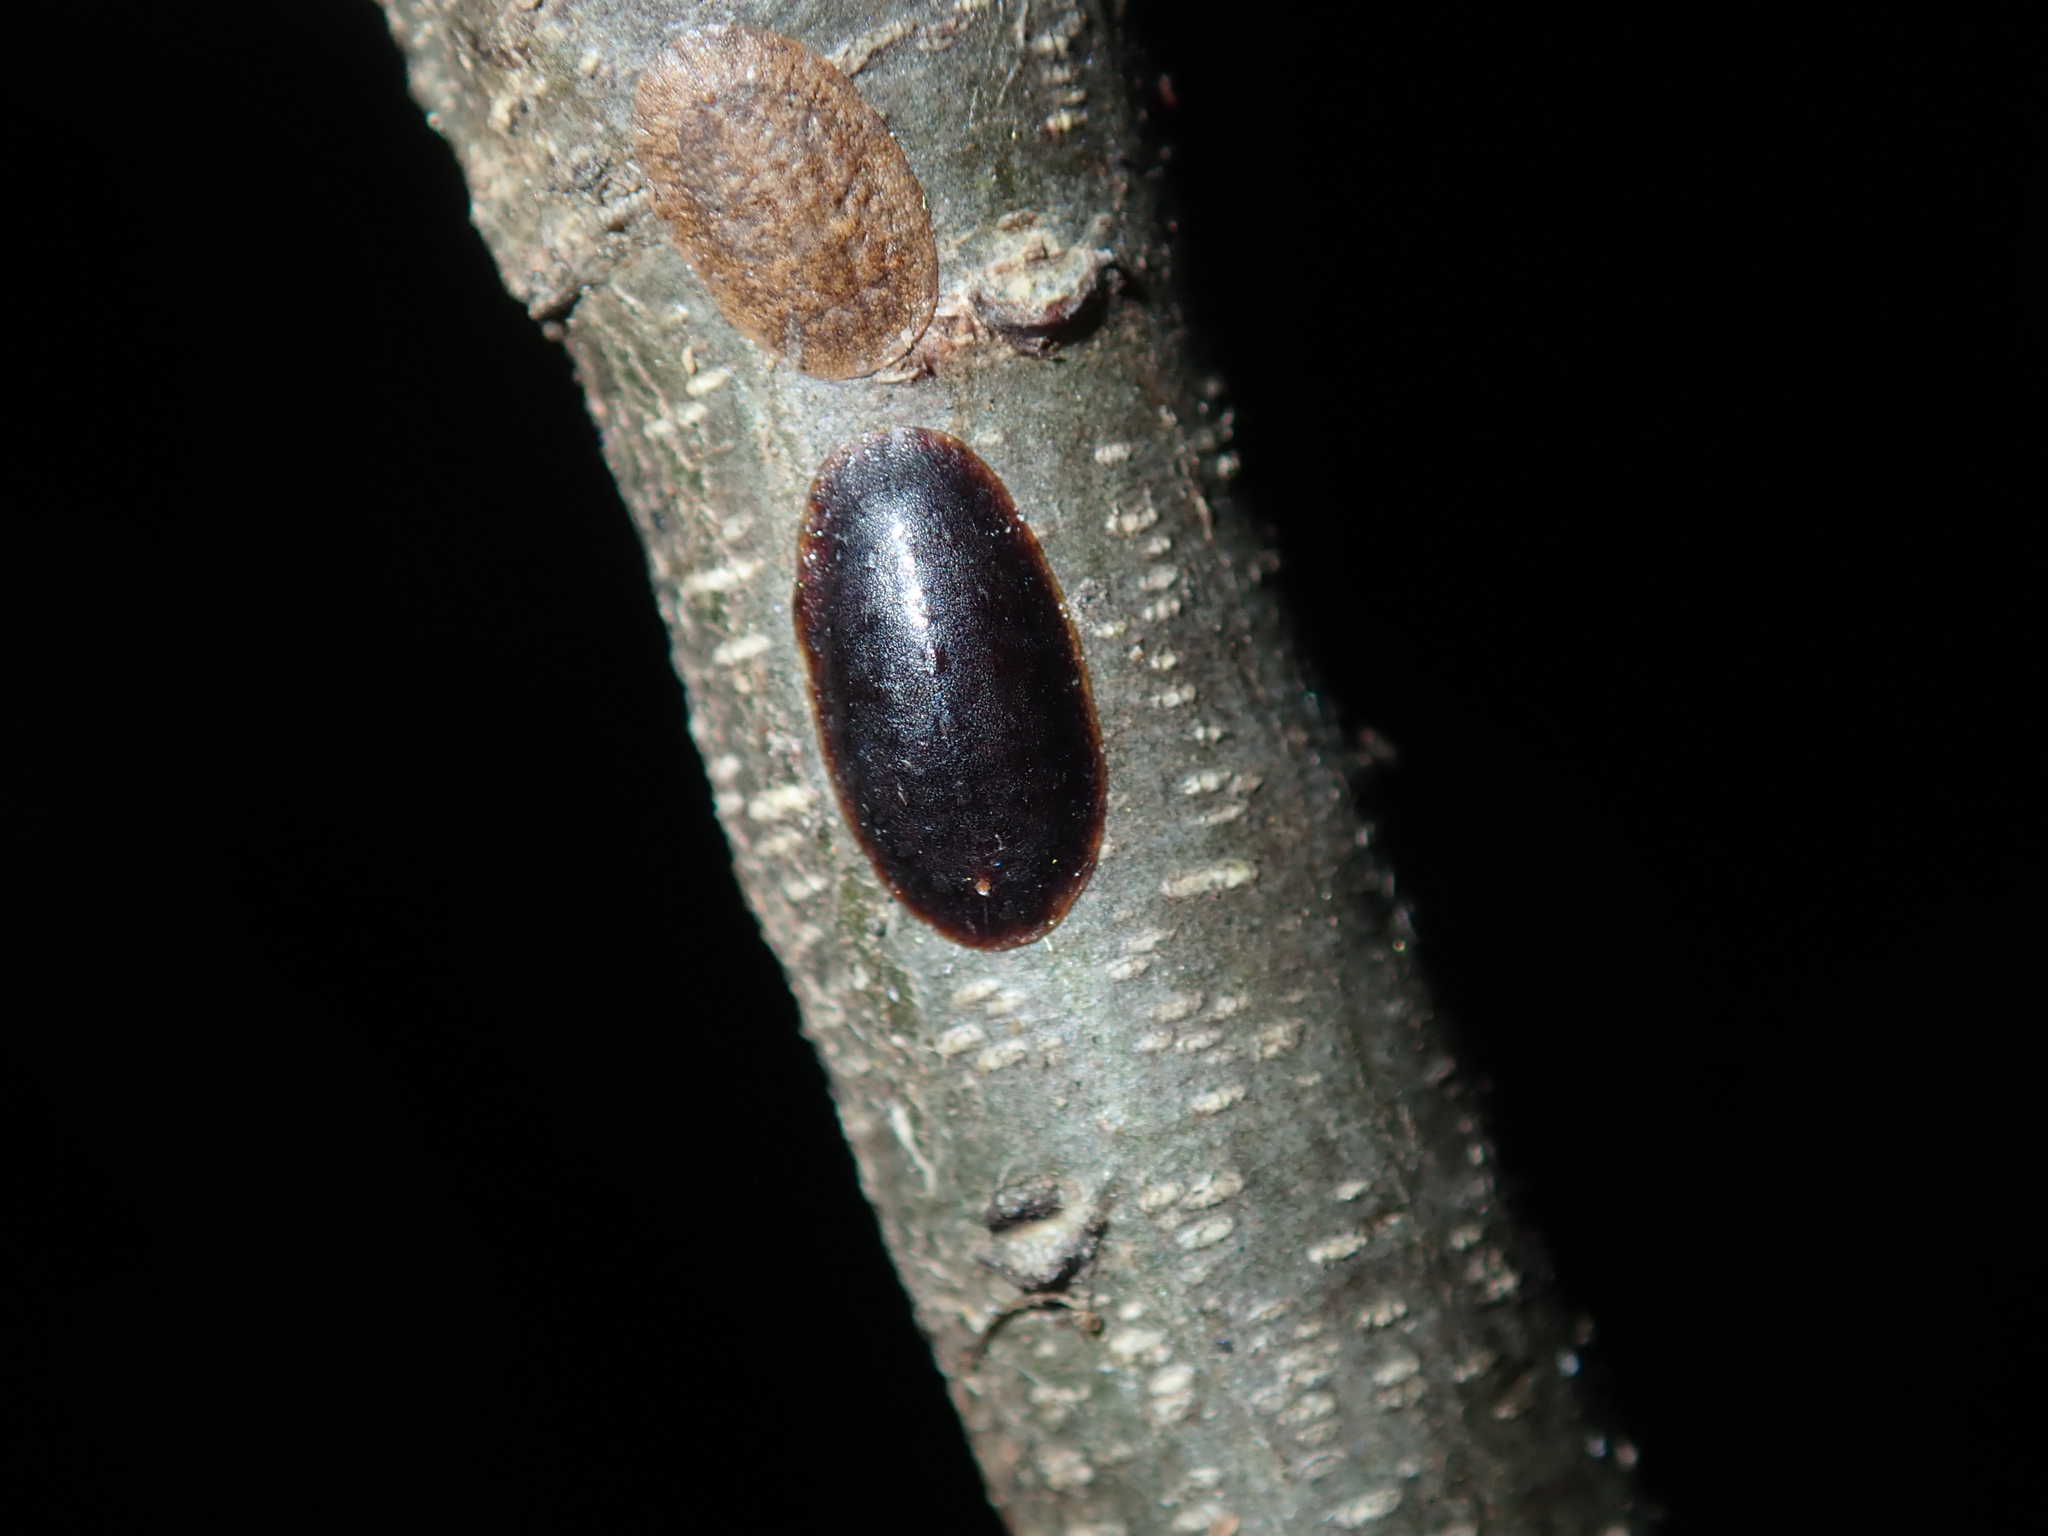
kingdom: Animalia
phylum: Arthropoda
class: Insecta
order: Hemiptera
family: Coccidae
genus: Parasaissetia
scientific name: Parasaissetia nigra
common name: Black scale
